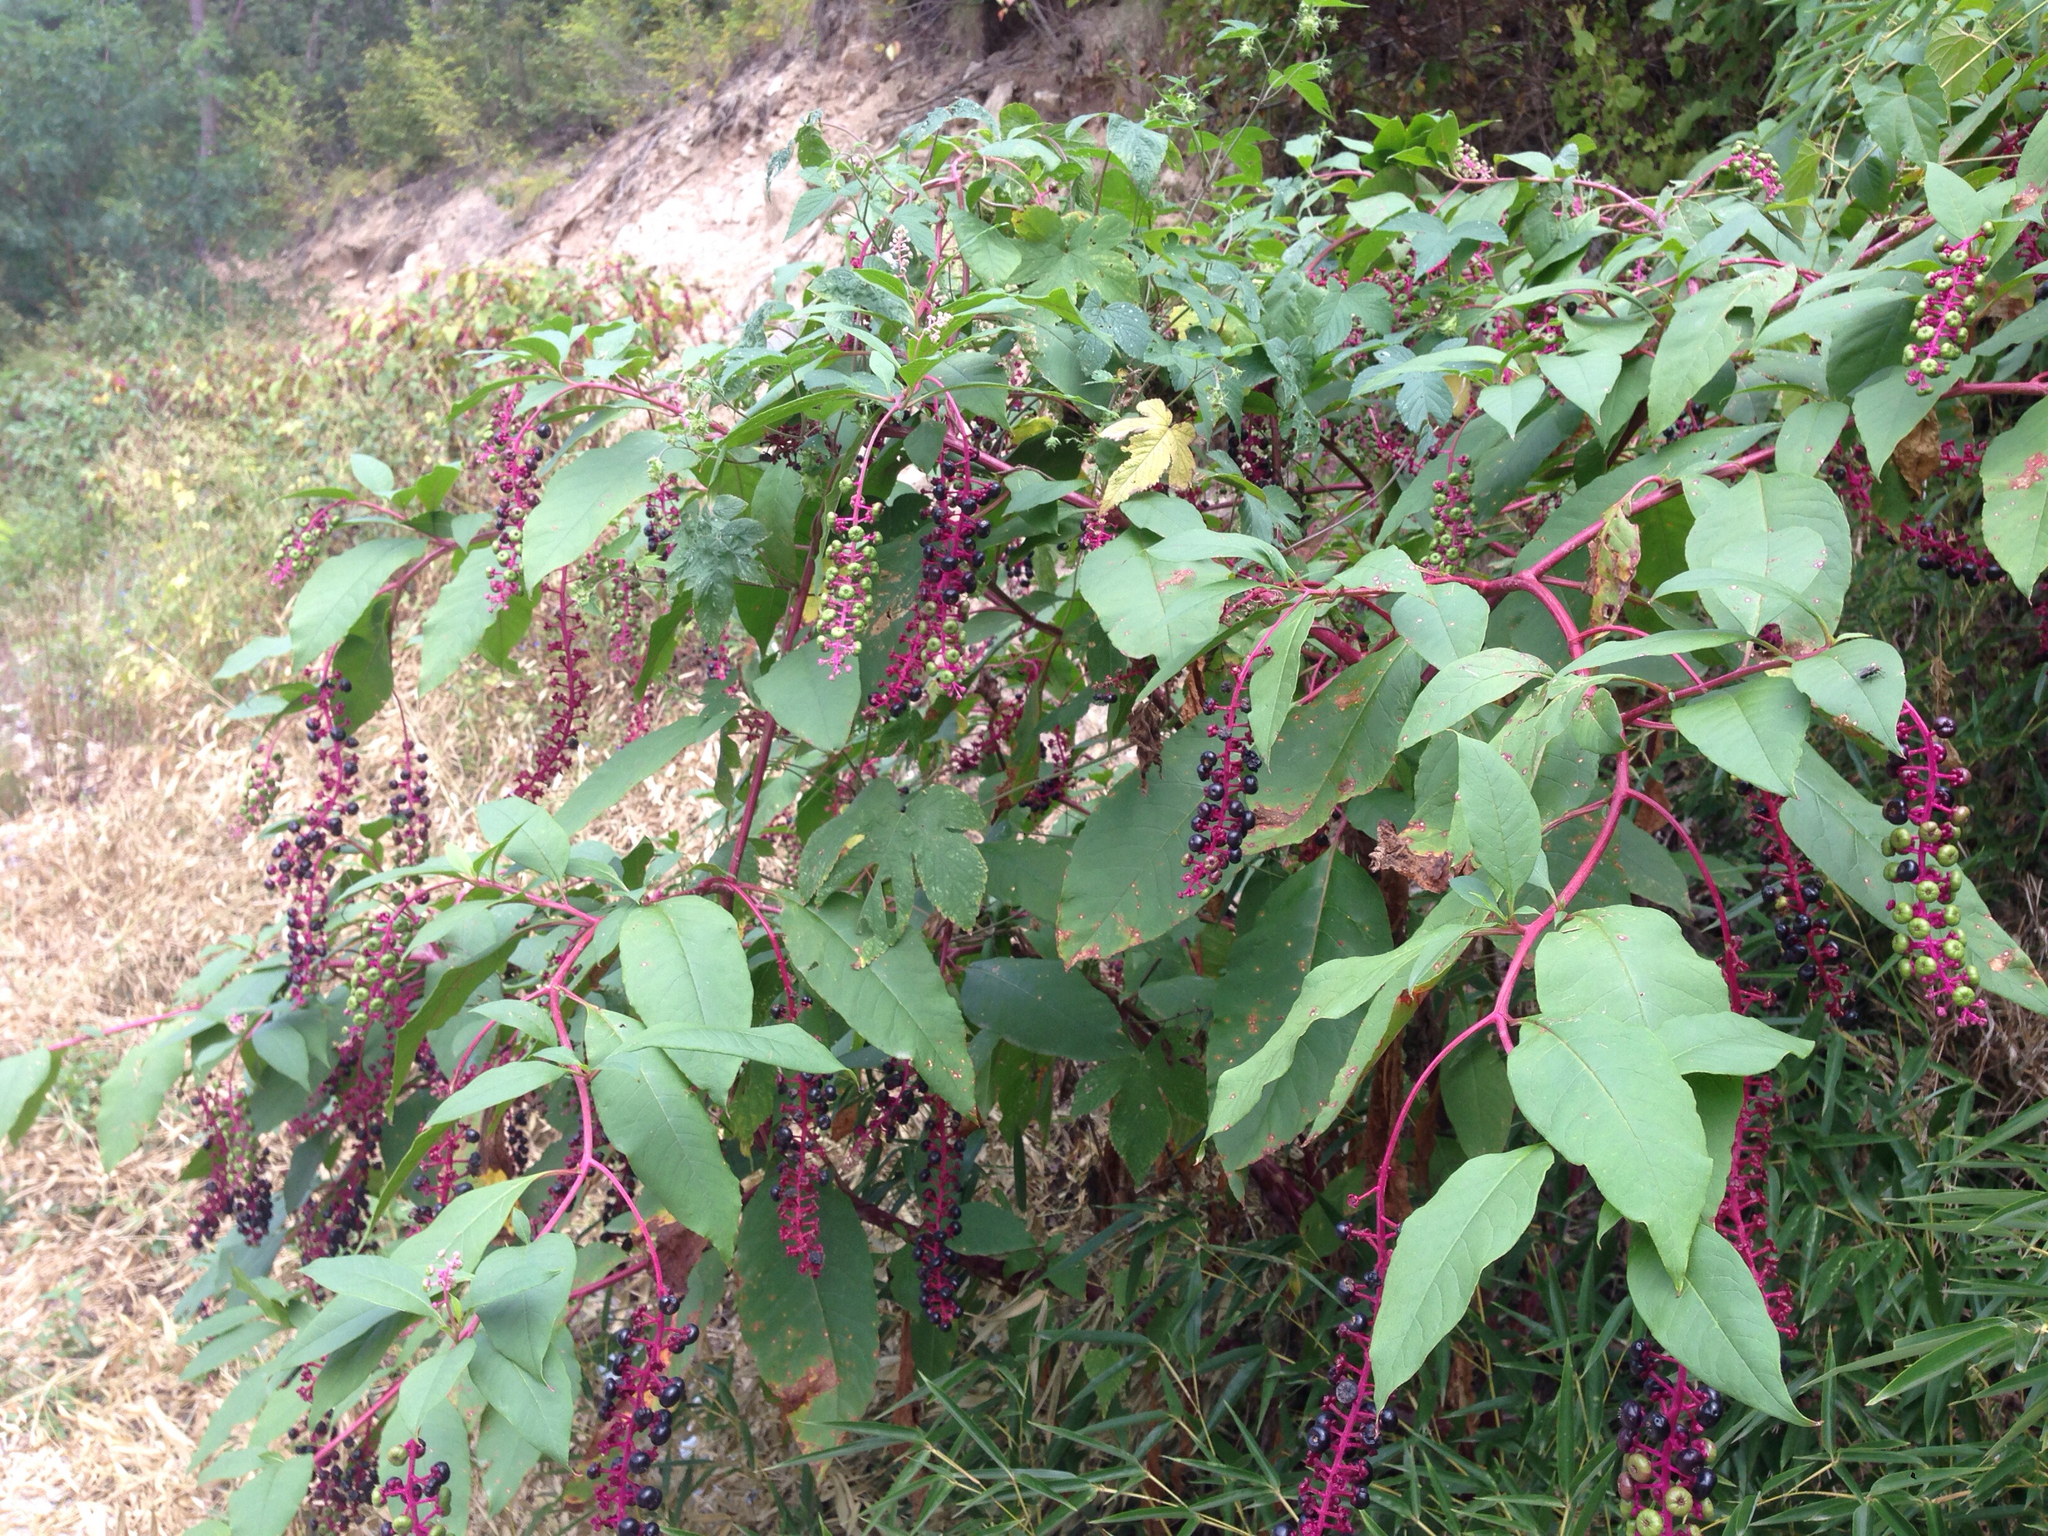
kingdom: Plantae
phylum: Tracheophyta
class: Magnoliopsida
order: Caryophyllales
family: Phytolaccaceae
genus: Phytolacca
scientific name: Phytolacca americana
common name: American pokeweed
